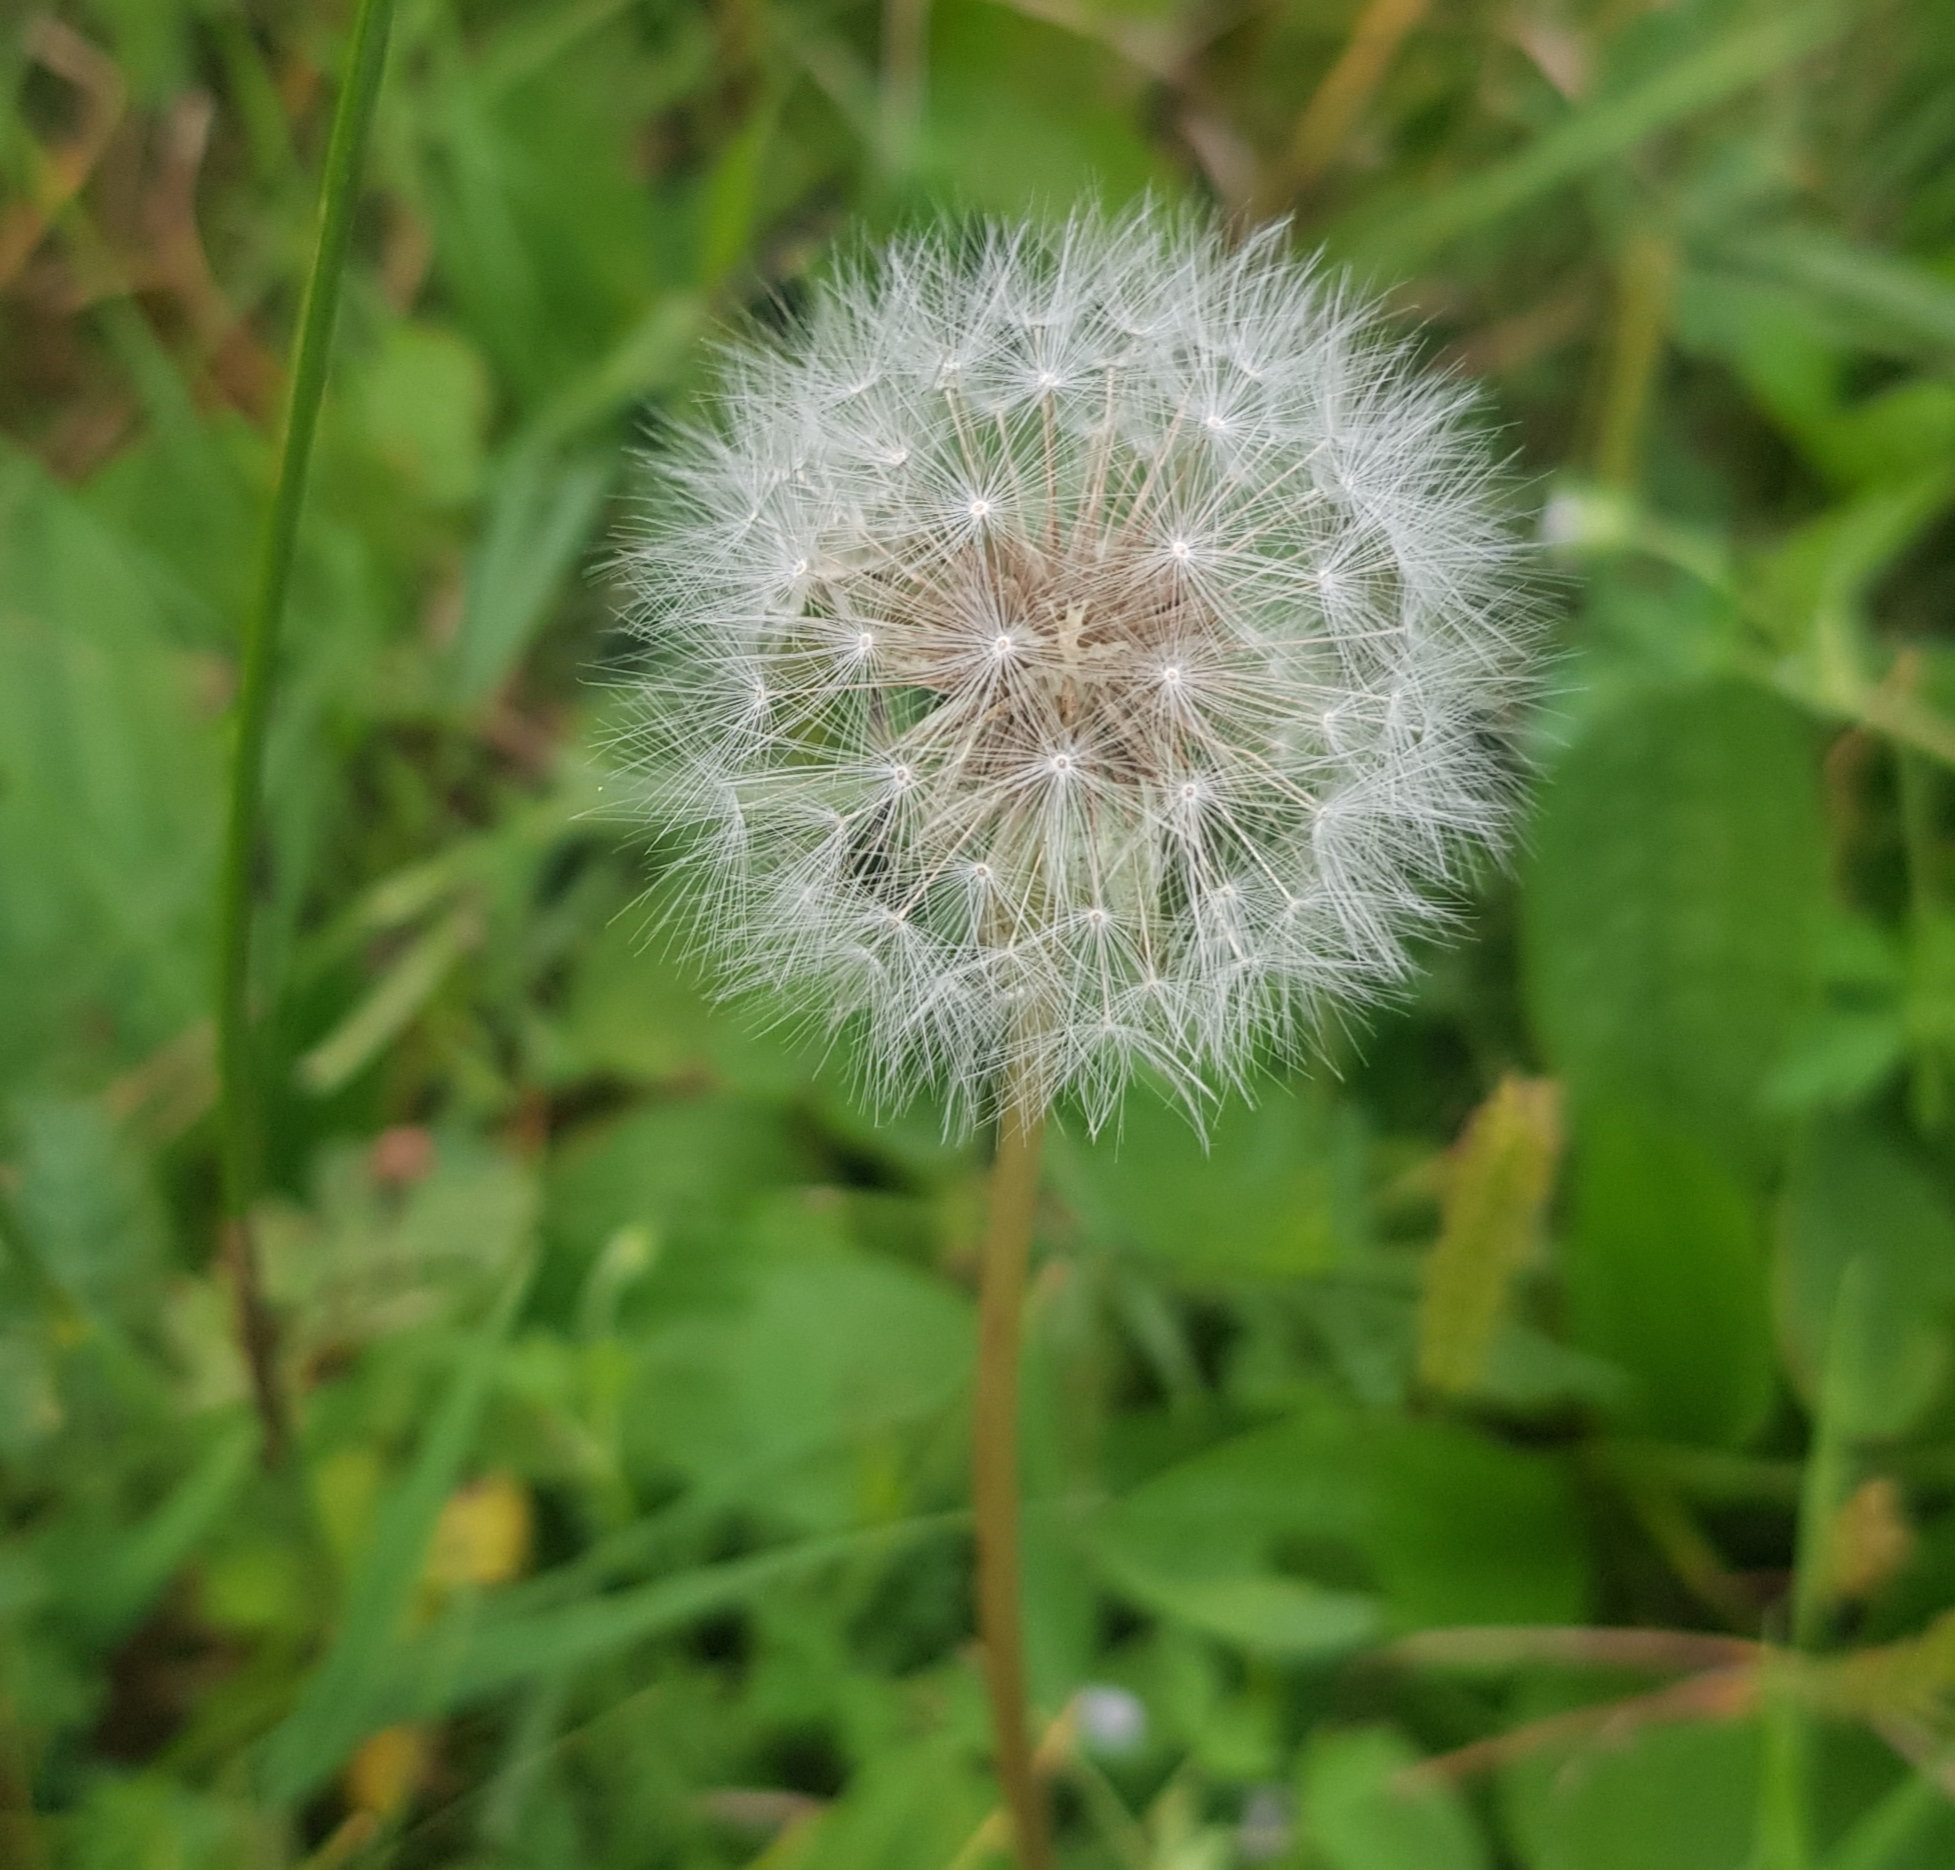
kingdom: Plantae
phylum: Tracheophyta
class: Magnoliopsida
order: Asterales
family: Asteraceae
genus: Taraxacum
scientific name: Taraxacum erythrospermum
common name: Rock dandelion
